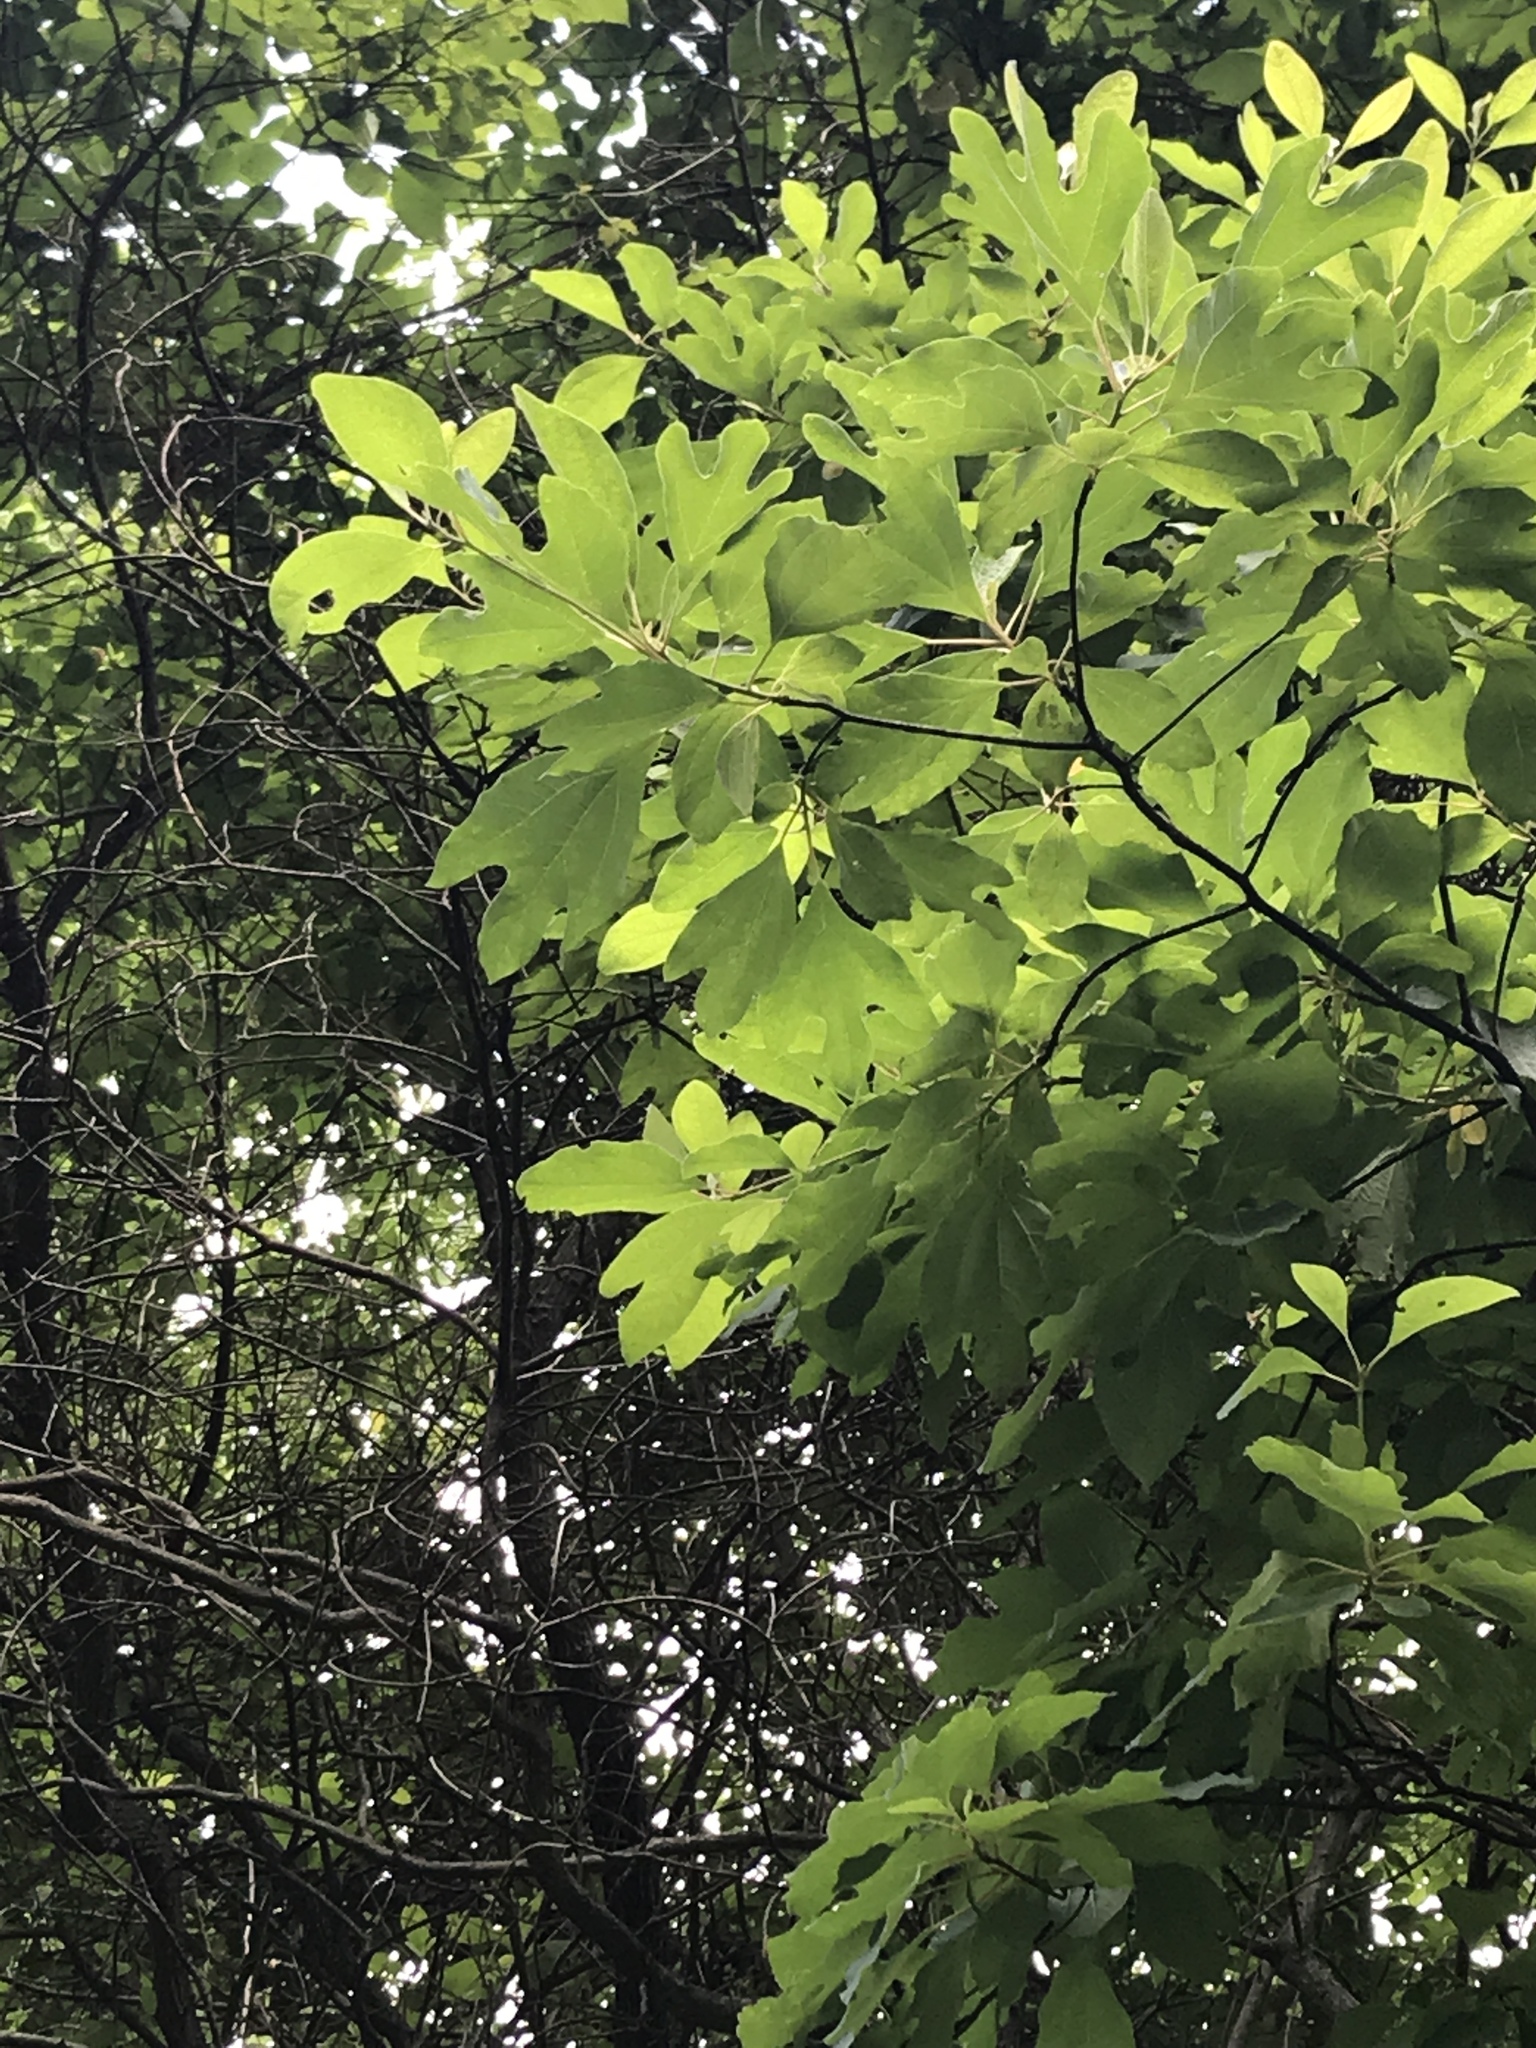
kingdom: Plantae
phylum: Tracheophyta
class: Magnoliopsida
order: Laurales
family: Lauraceae
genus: Sassafras
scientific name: Sassafras albidum
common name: Sassafras
